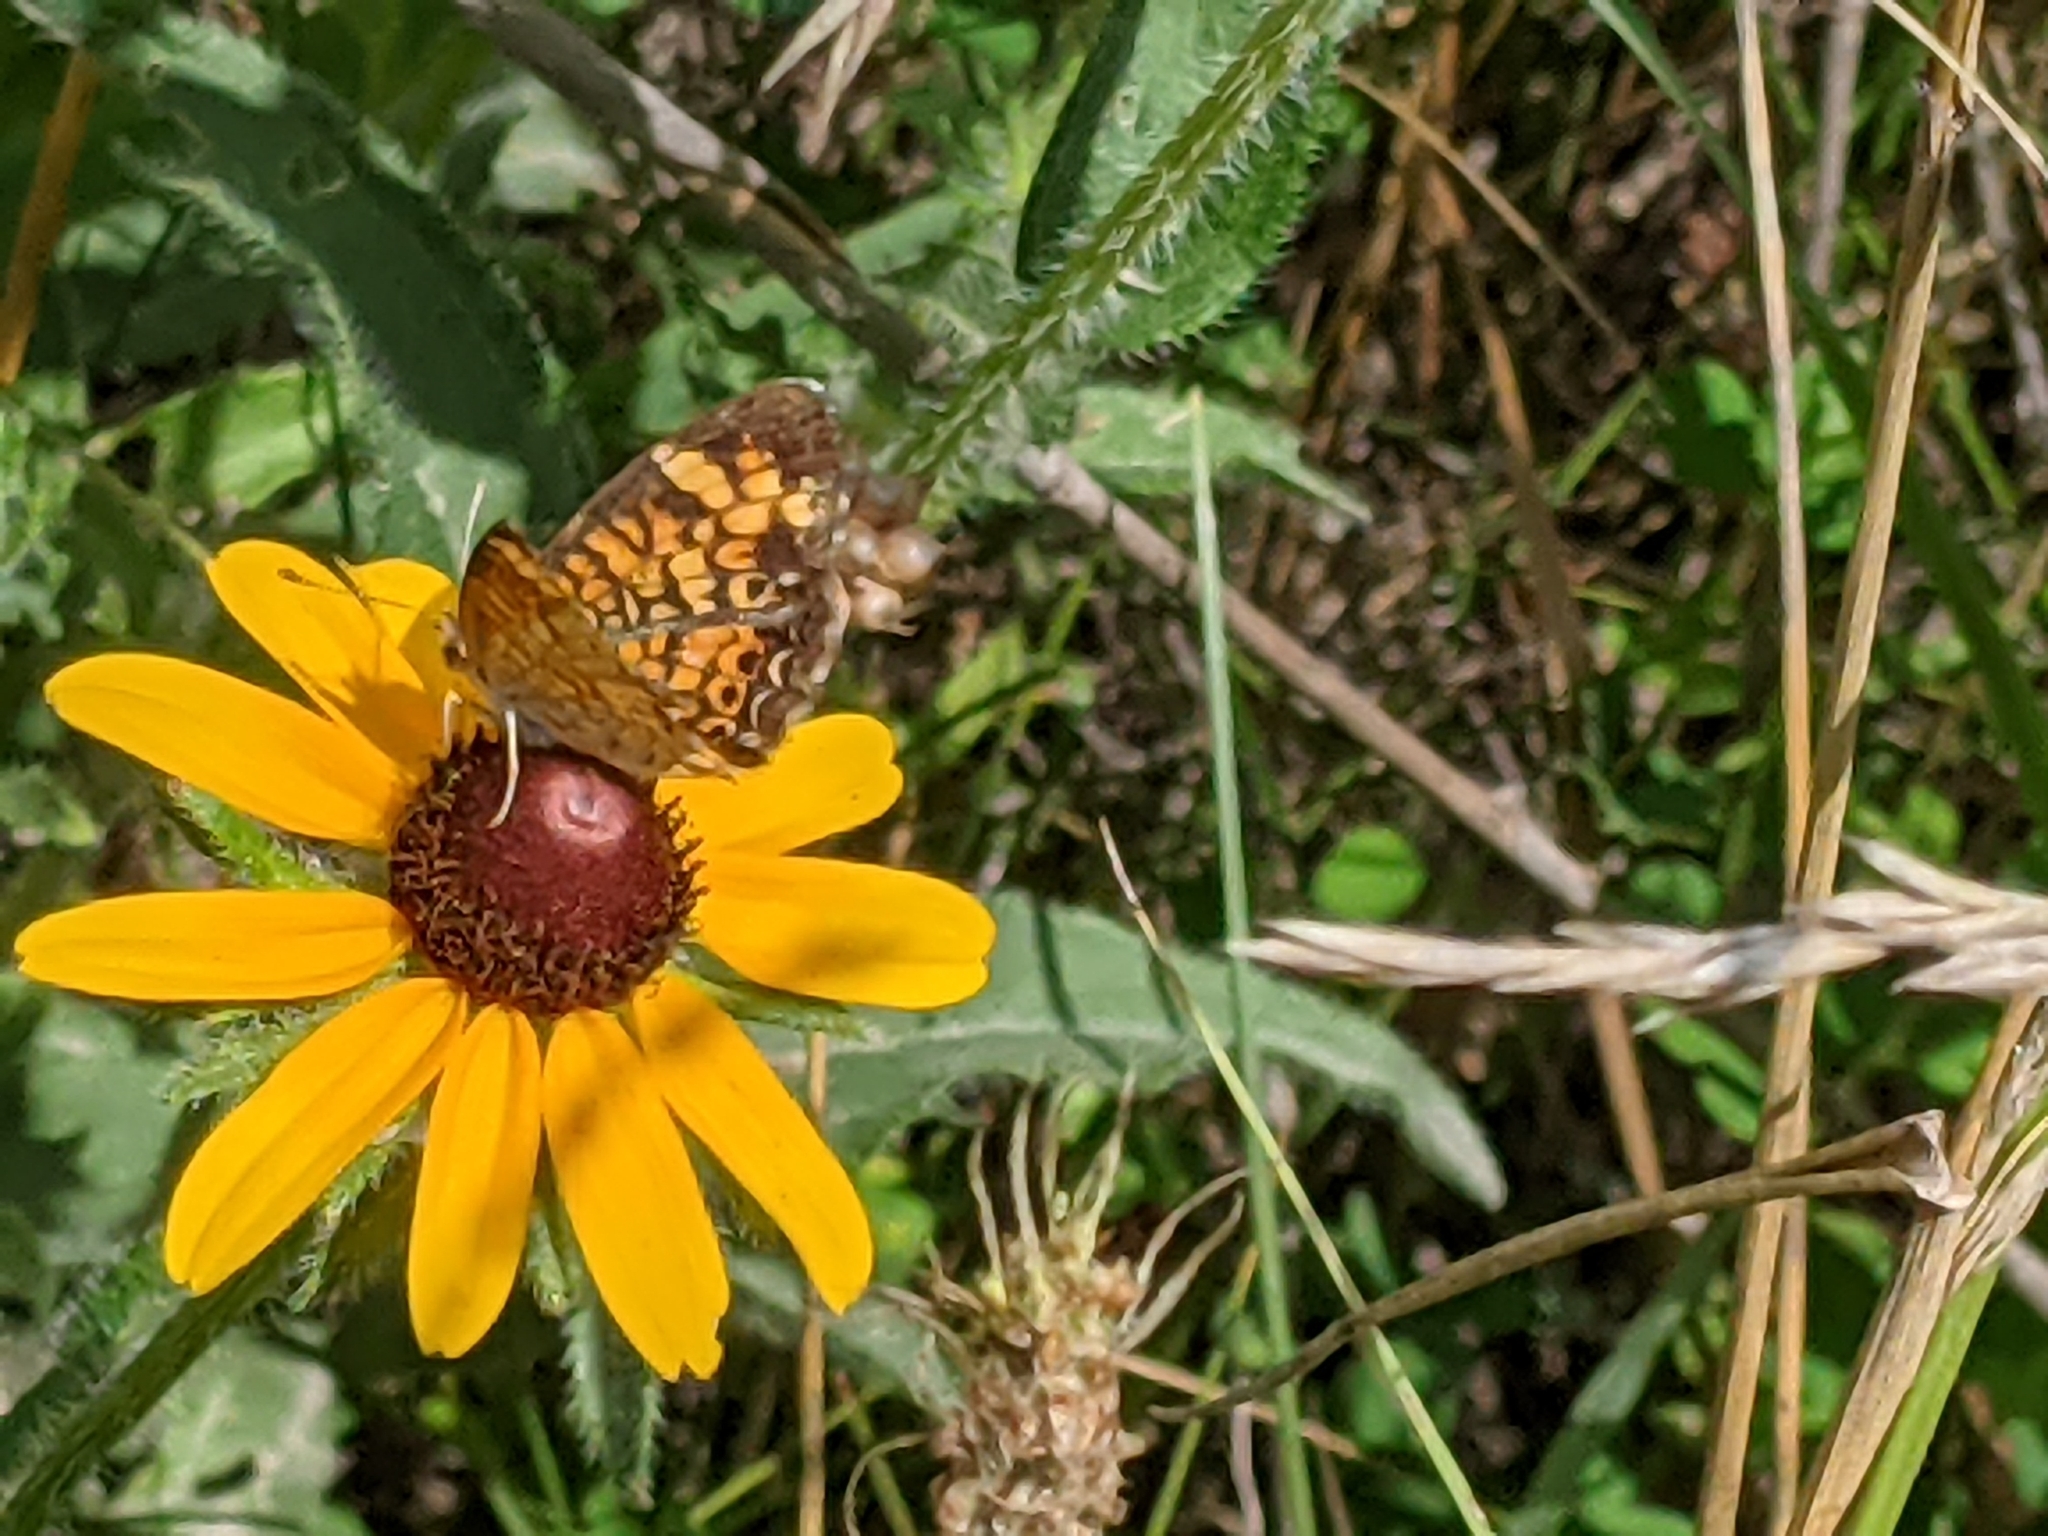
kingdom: Animalia
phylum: Arthropoda
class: Insecta
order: Lepidoptera
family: Nymphalidae
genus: Phyciodes
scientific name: Phyciodes tharos
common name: Pearl crescent
